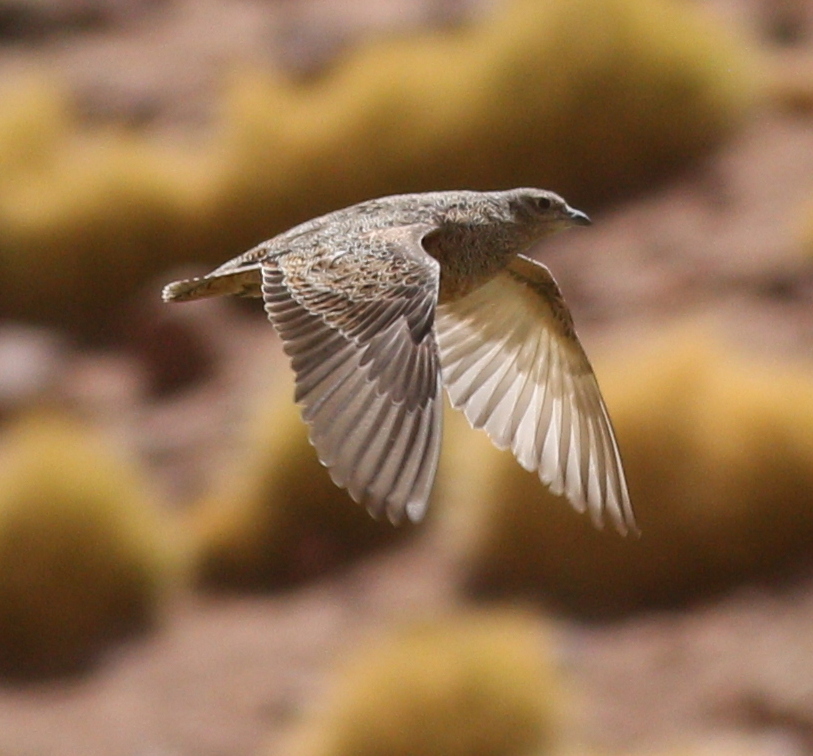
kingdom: Animalia
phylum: Chordata
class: Aves
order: Charadriiformes
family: Thinocoridae
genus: Attagis
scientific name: Attagis gayi
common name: Rufous-bellied seedsnipe
